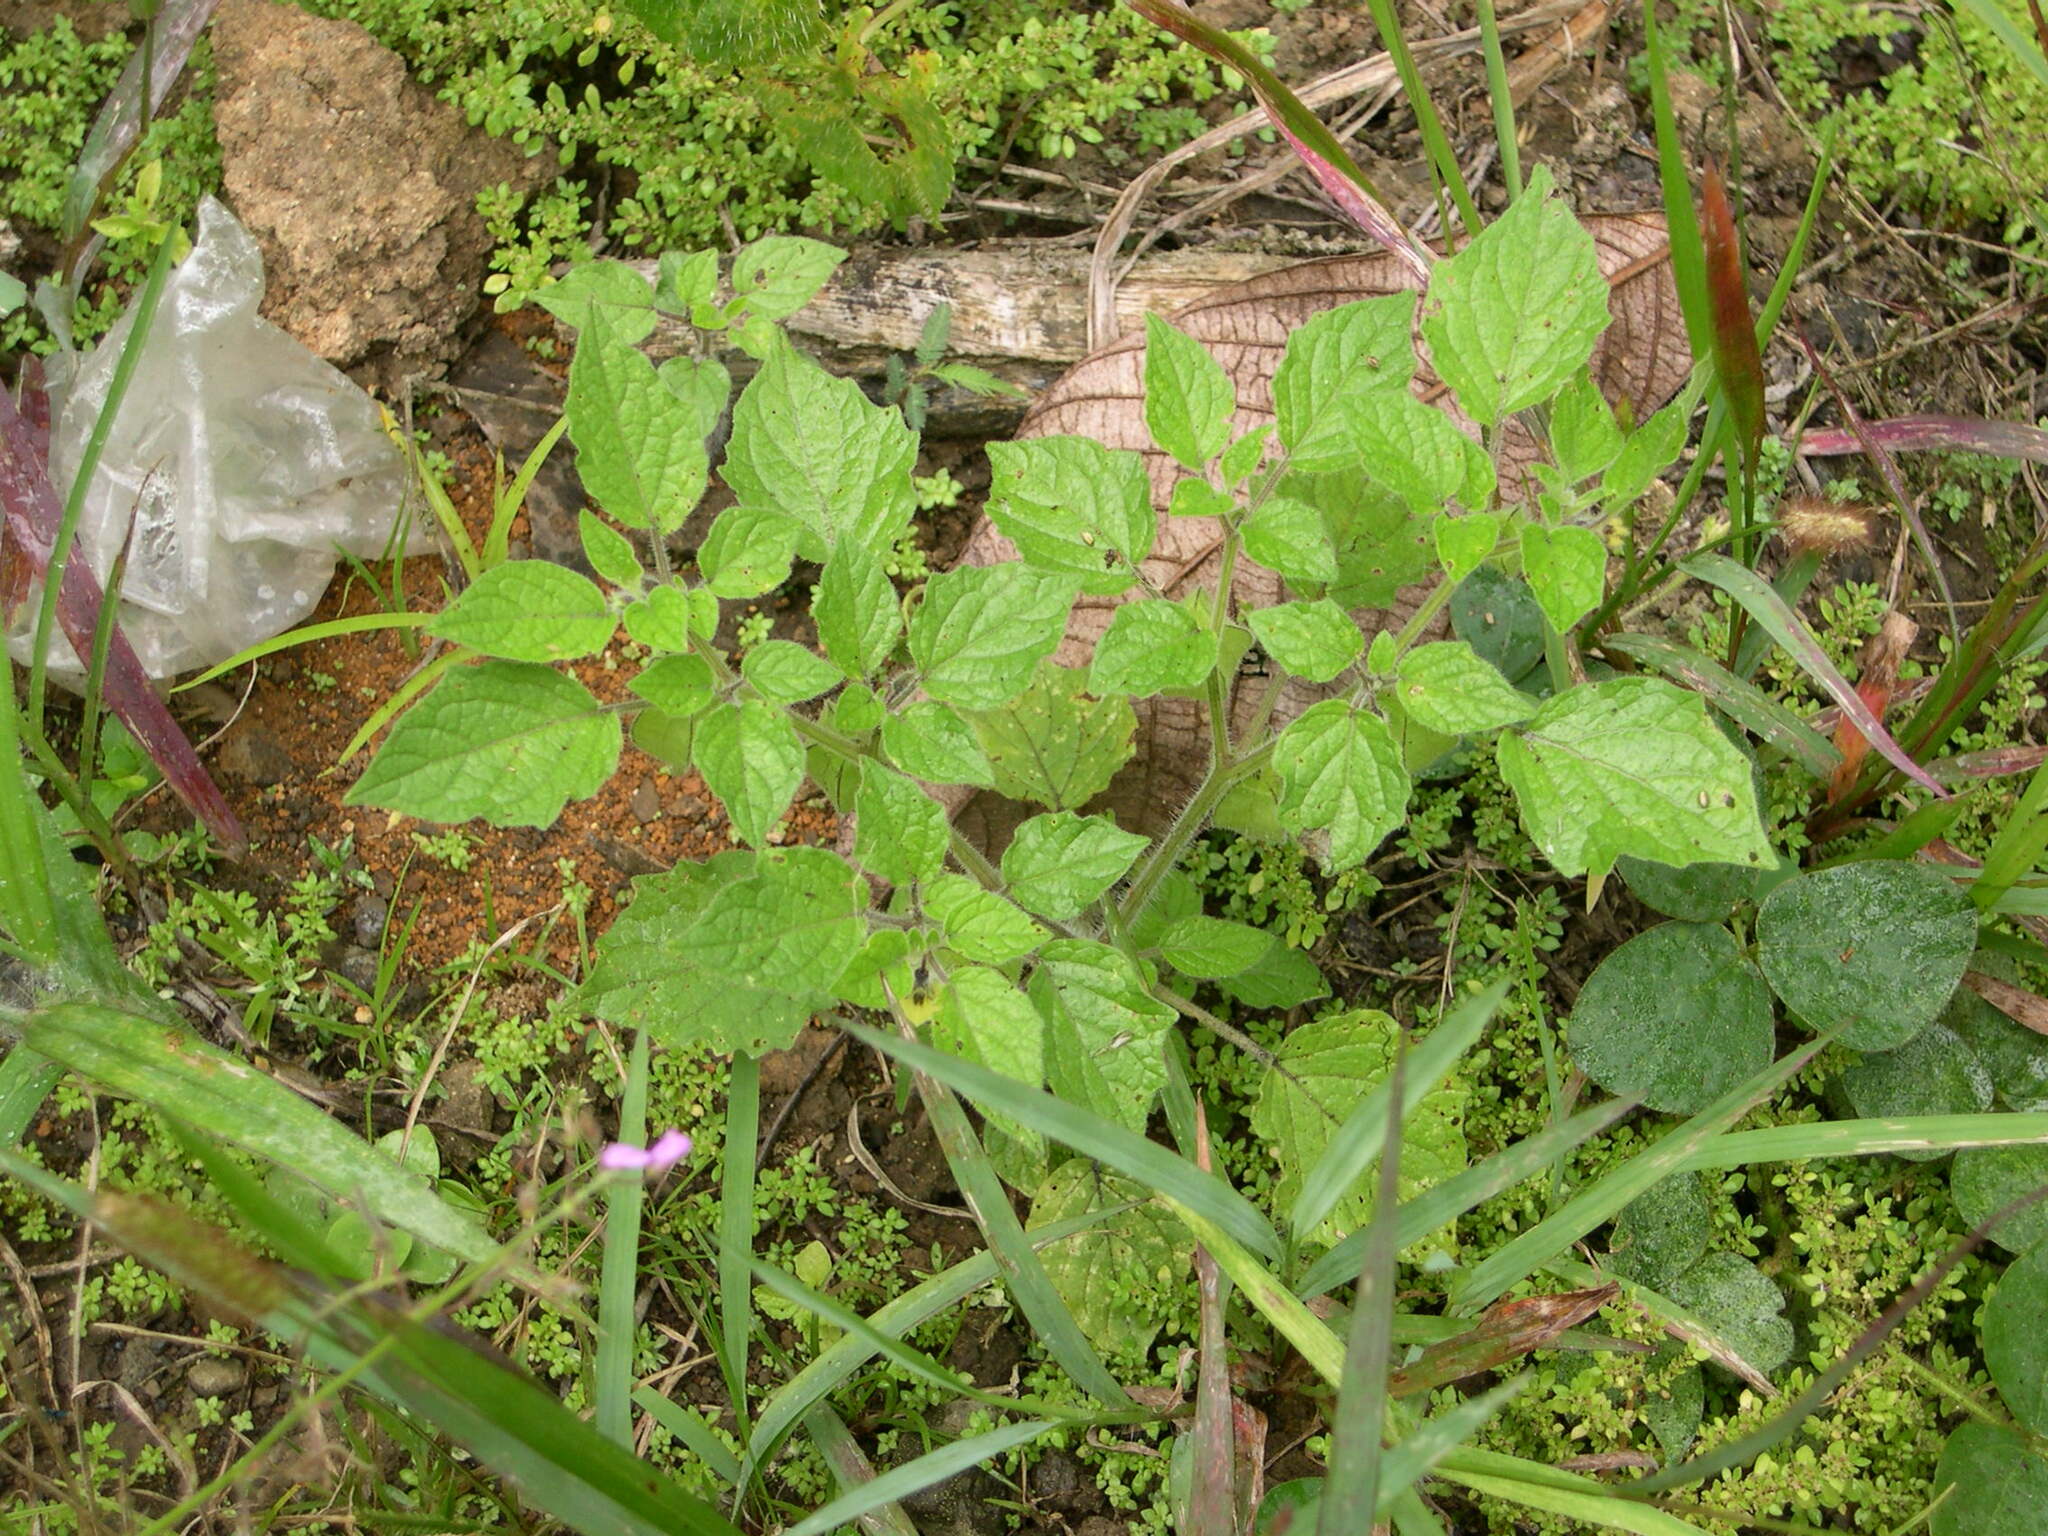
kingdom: Plantae
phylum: Tracheophyta
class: Magnoliopsida
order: Solanales
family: Solanaceae
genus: Physalis
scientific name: Physalis pubescens
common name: Downy ground-cherry
